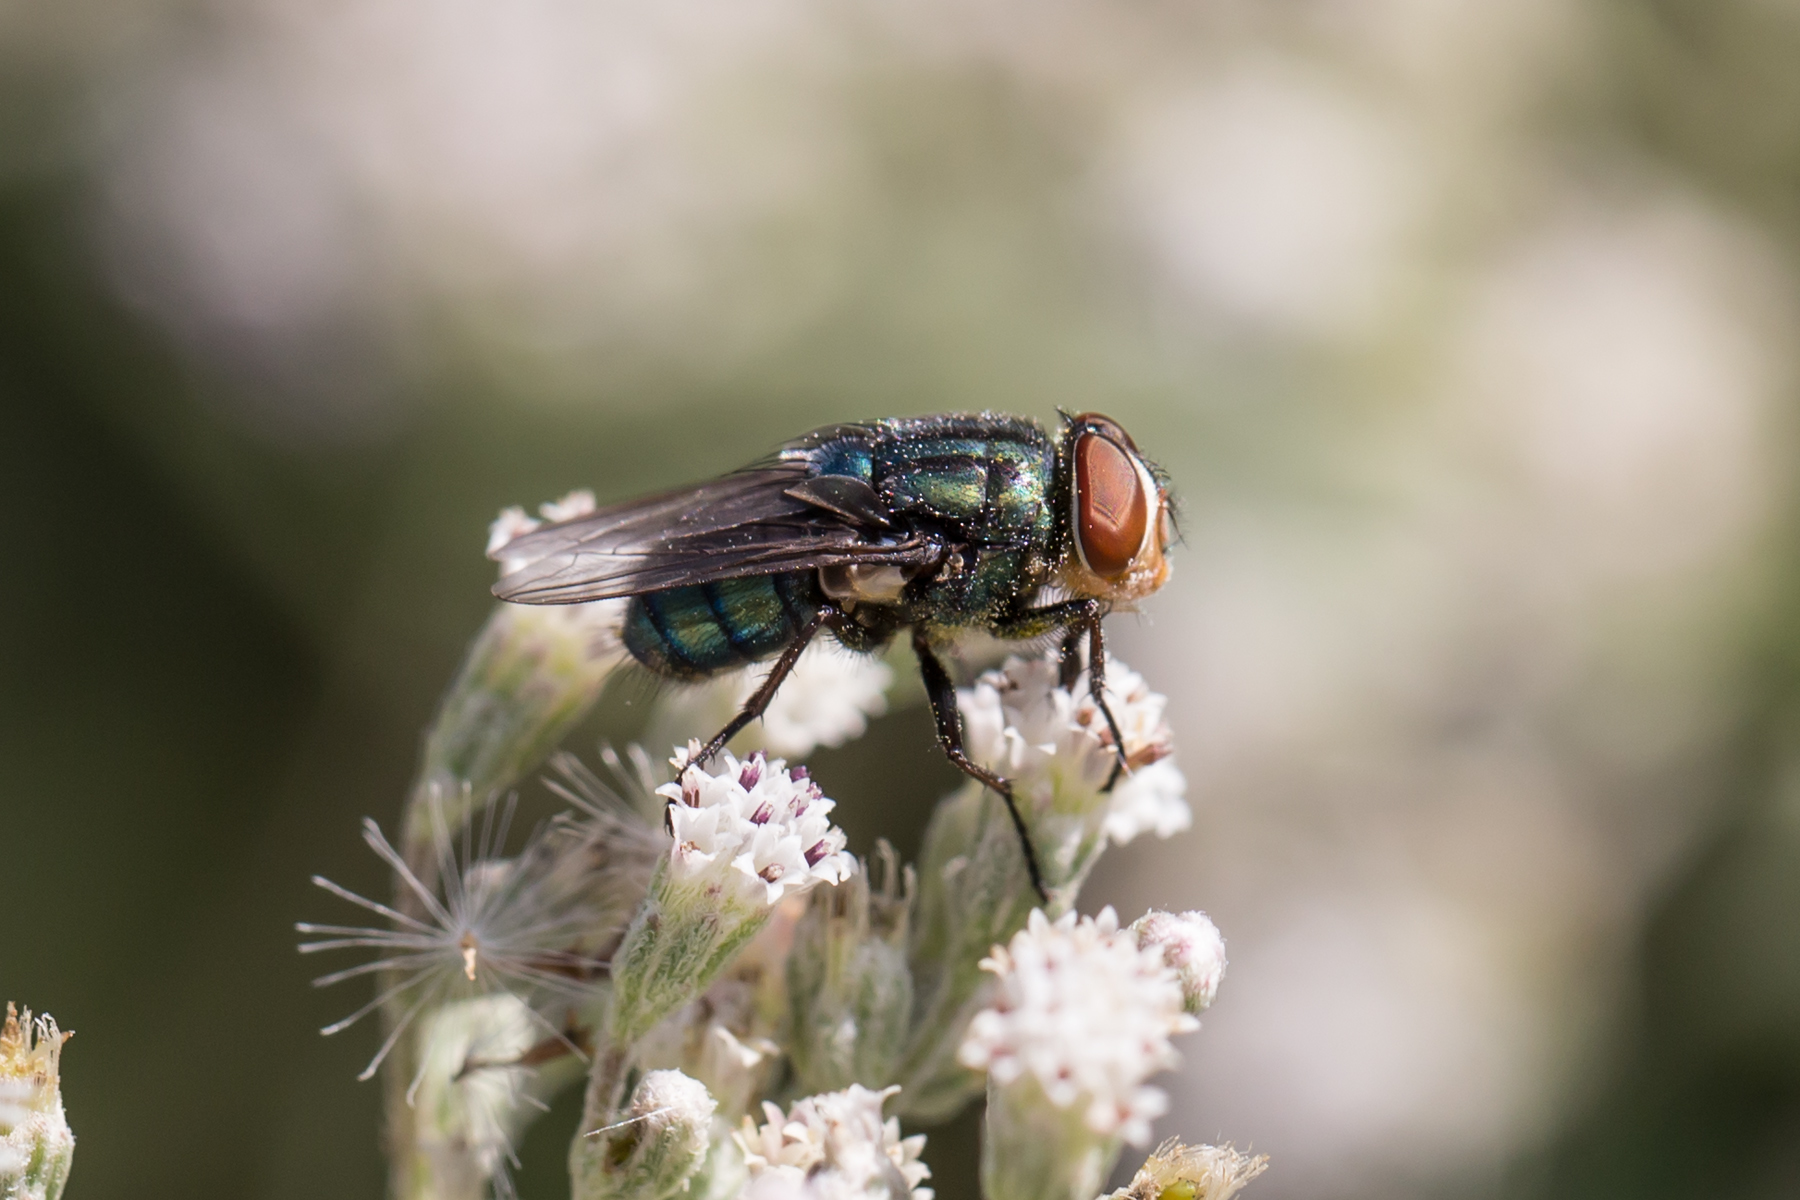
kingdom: Animalia
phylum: Arthropoda
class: Insecta
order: Diptera
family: Calliphoridae
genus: Cochliomyia
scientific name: Cochliomyia macellaria
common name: Secondary screwworm
